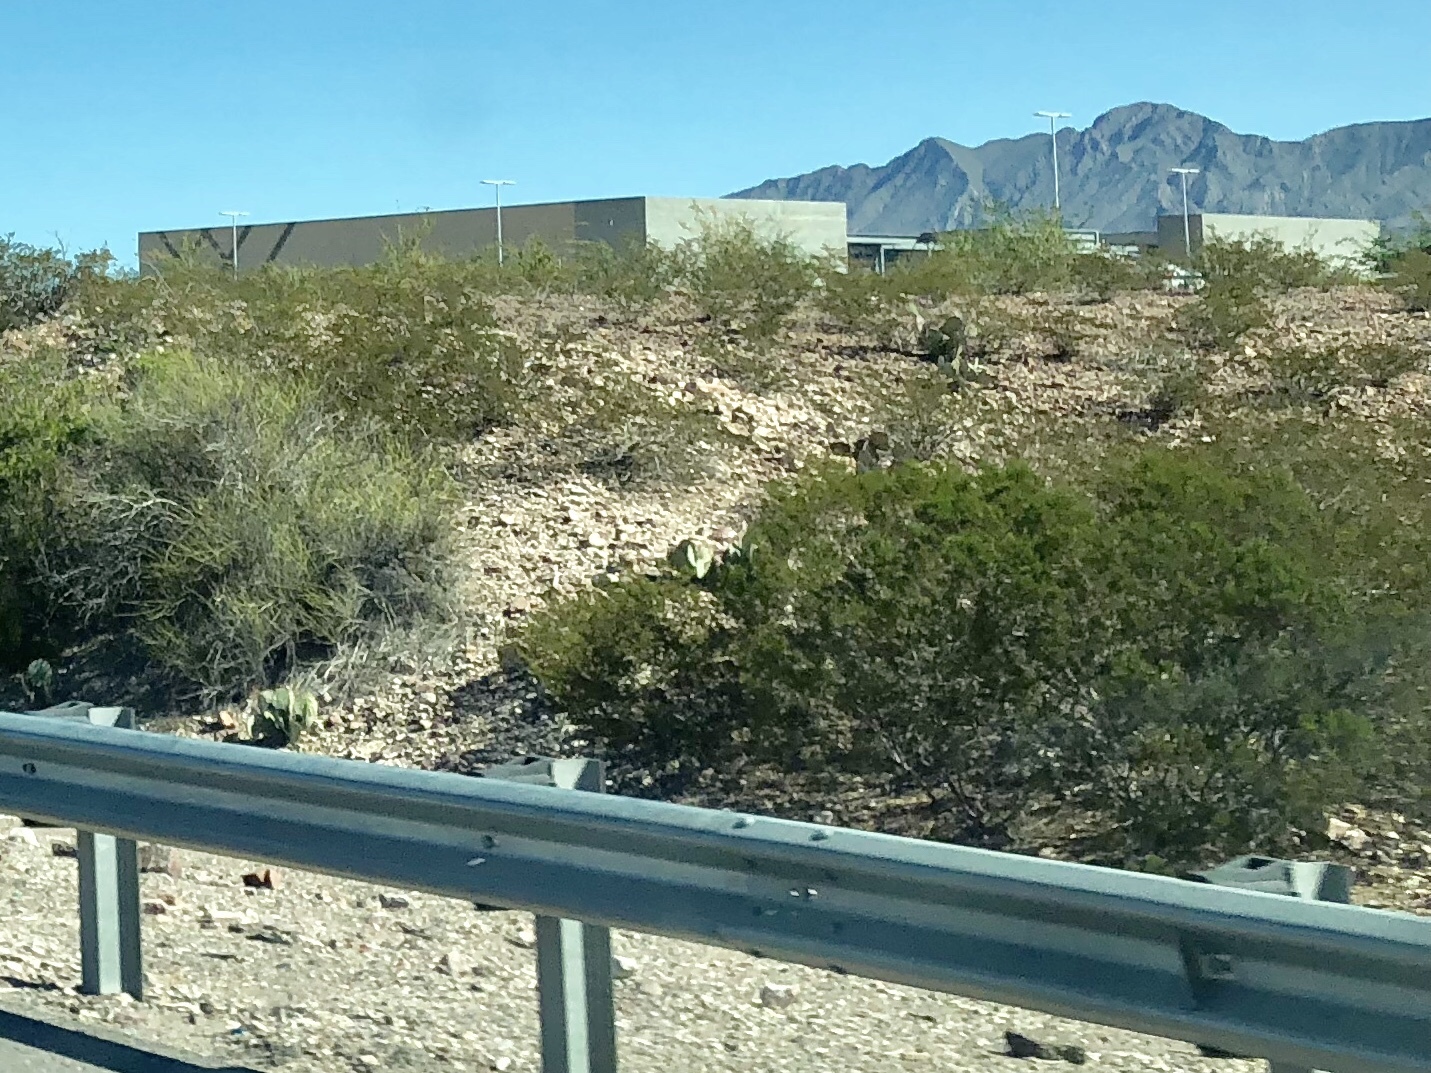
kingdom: Plantae
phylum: Tracheophyta
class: Magnoliopsida
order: Zygophyllales
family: Zygophyllaceae
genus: Larrea
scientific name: Larrea tridentata
